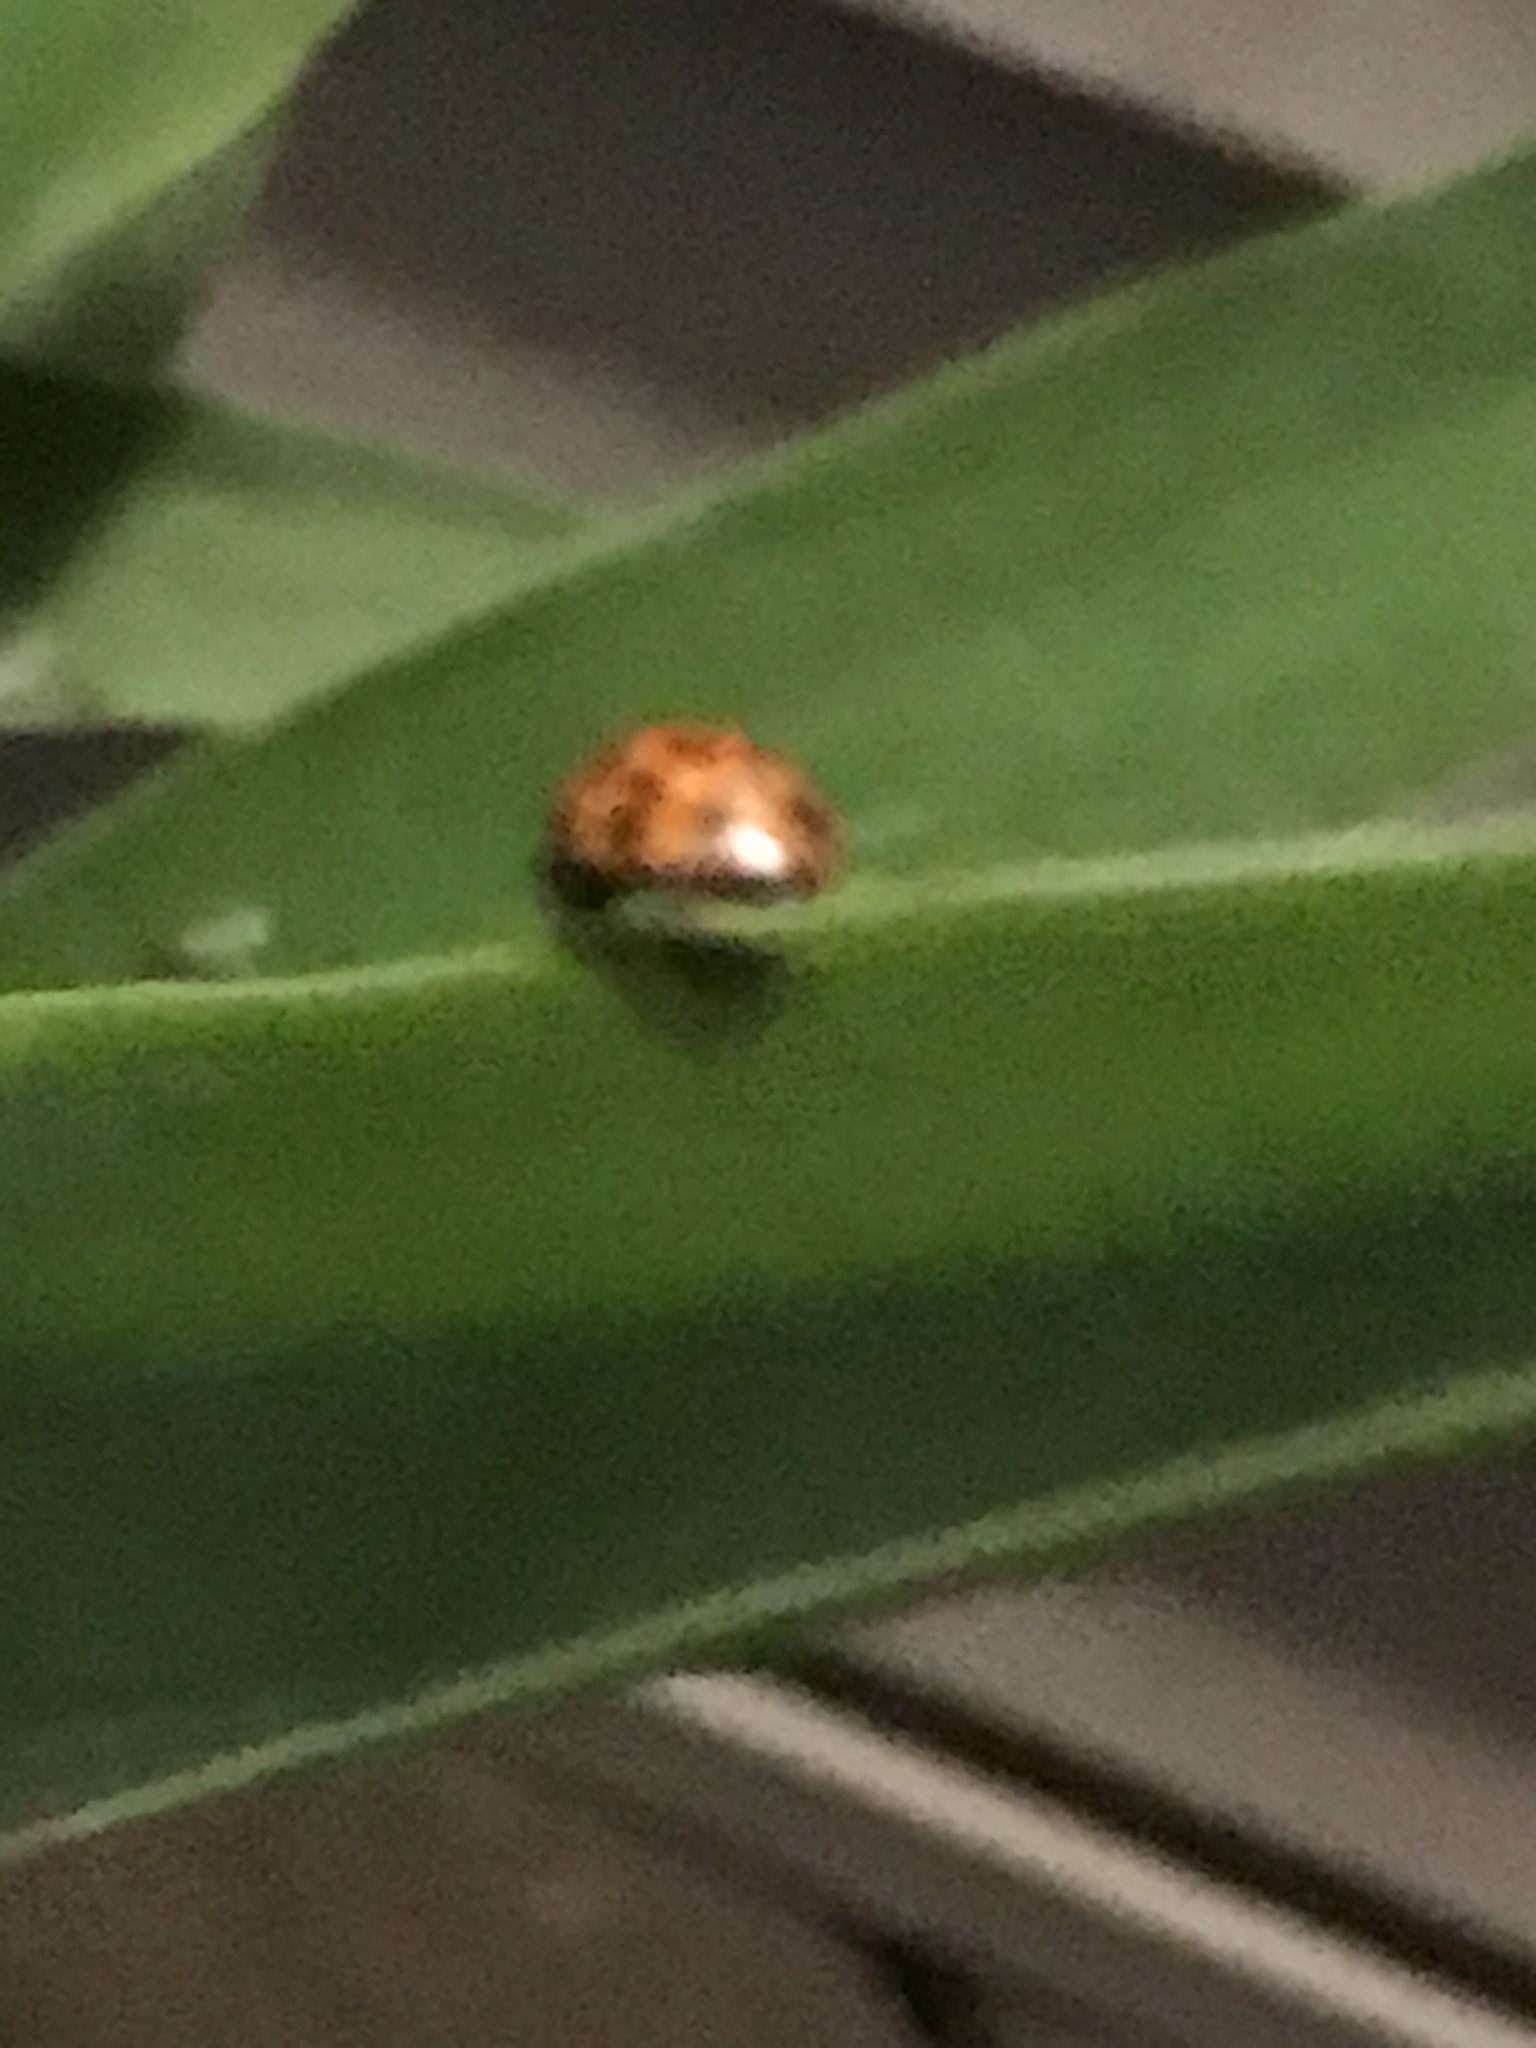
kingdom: Animalia
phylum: Arthropoda
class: Insecta
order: Coleoptera
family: Coccinellidae
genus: Harmonia
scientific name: Harmonia axyridis
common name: Harlequin ladybird
